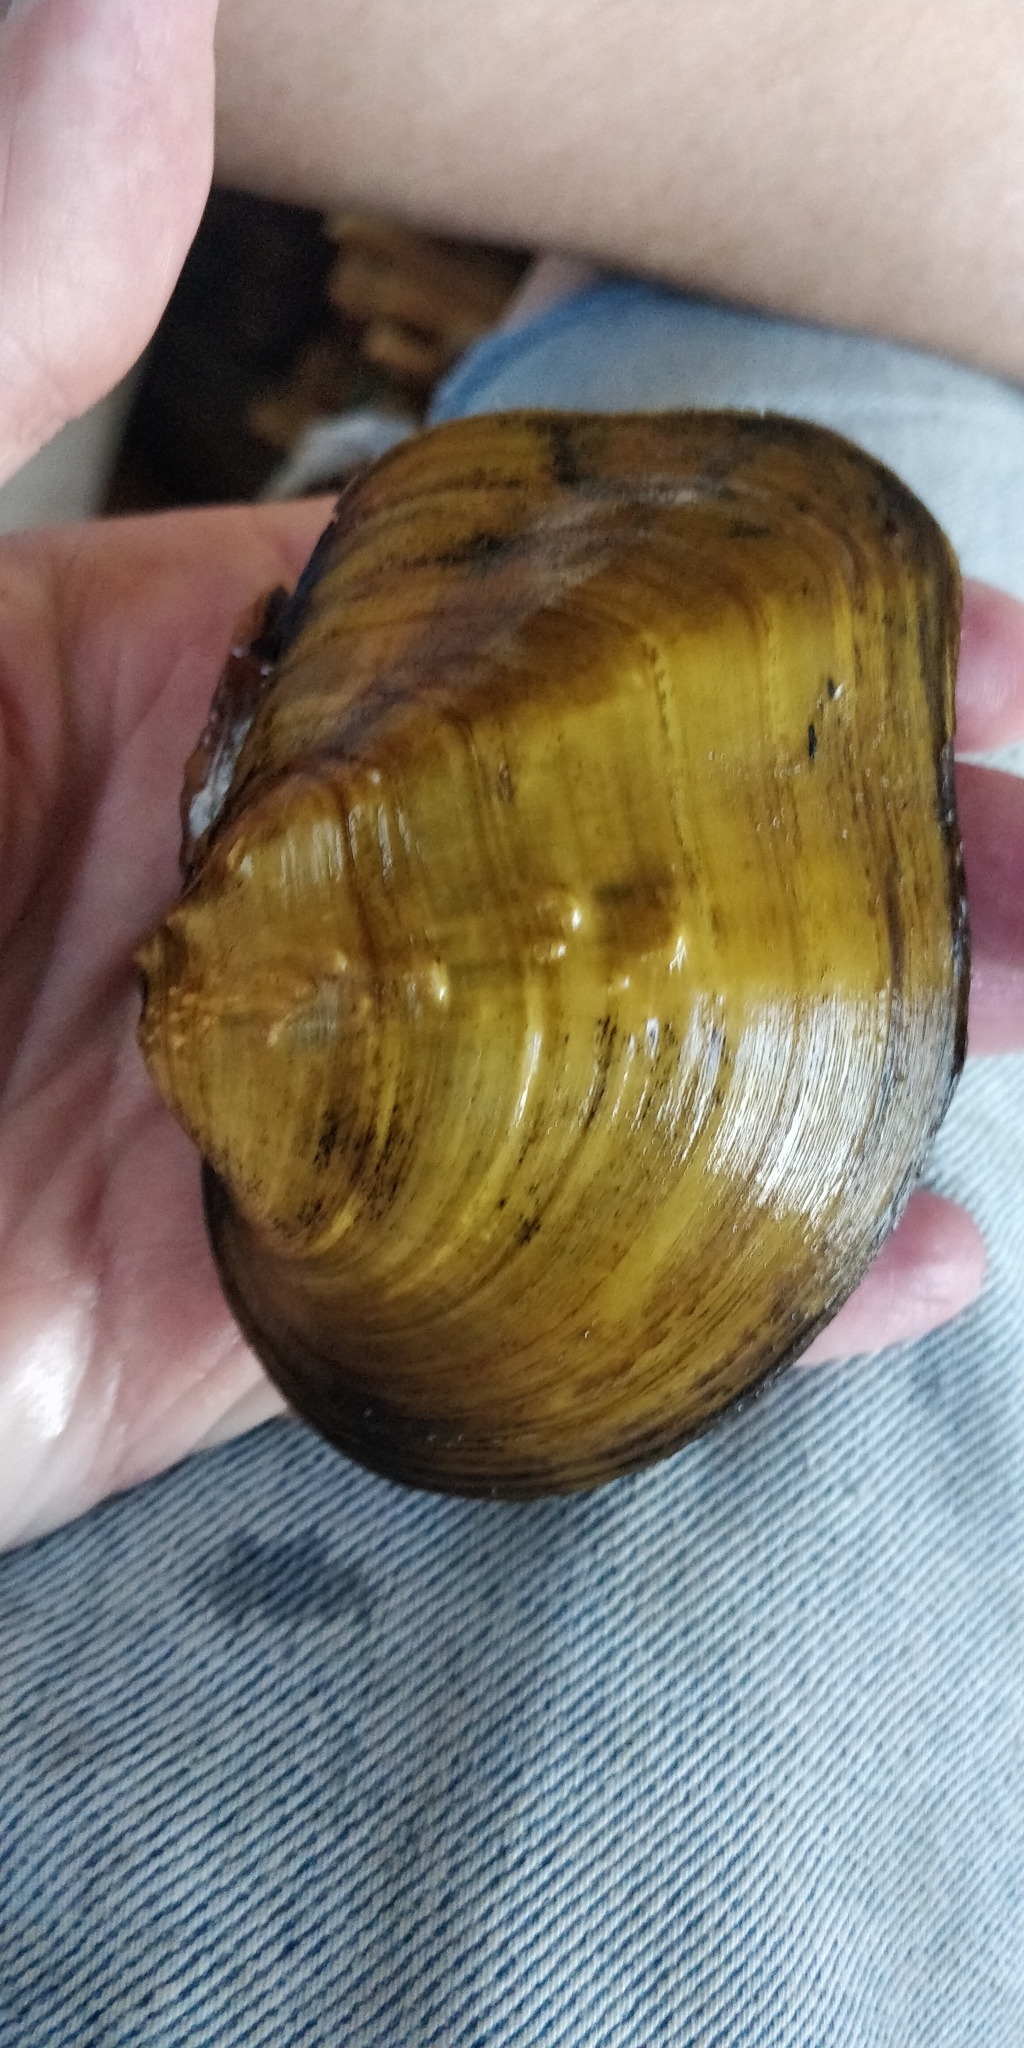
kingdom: Animalia
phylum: Mollusca
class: Bivalvia
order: Unionida
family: Unionidae
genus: Quadrula
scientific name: Quadrula quadrula
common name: Mapleleaf
